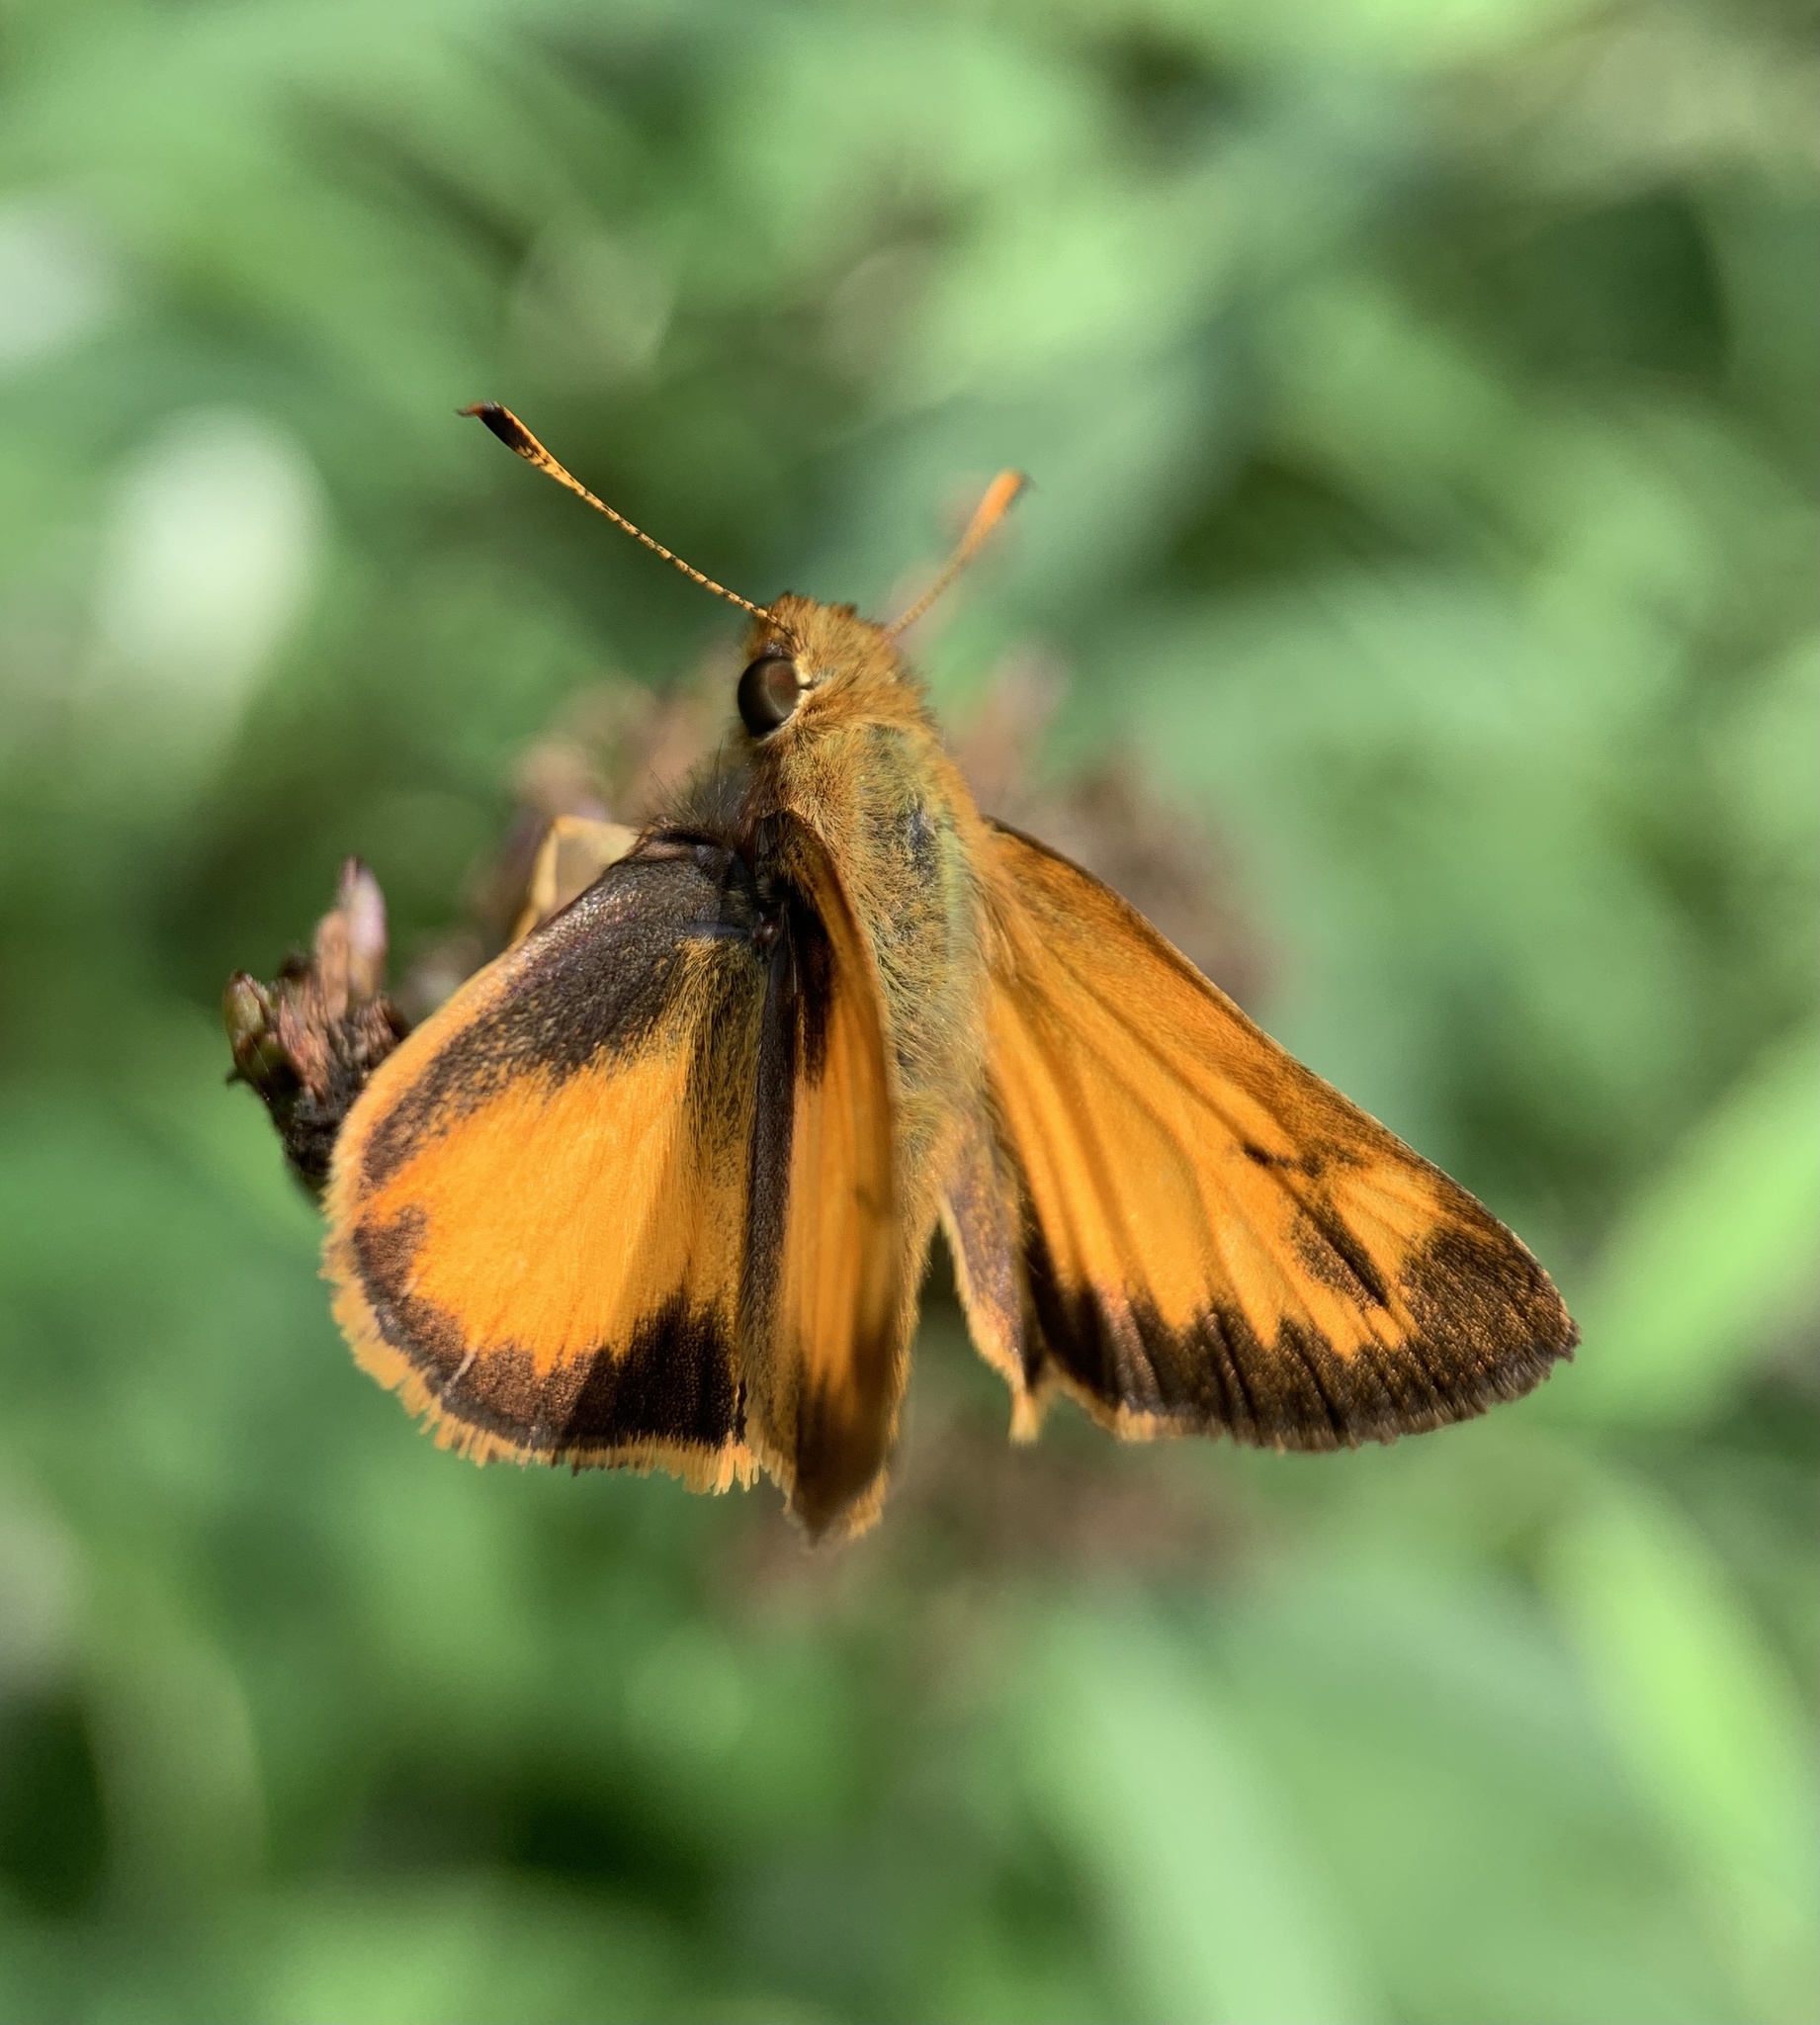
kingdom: Animalia
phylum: Arthropoda
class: Insecta
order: Lepidoptera
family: Hesperiidae
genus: Lon
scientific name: Lon zabulon
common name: Zabulon skipper
